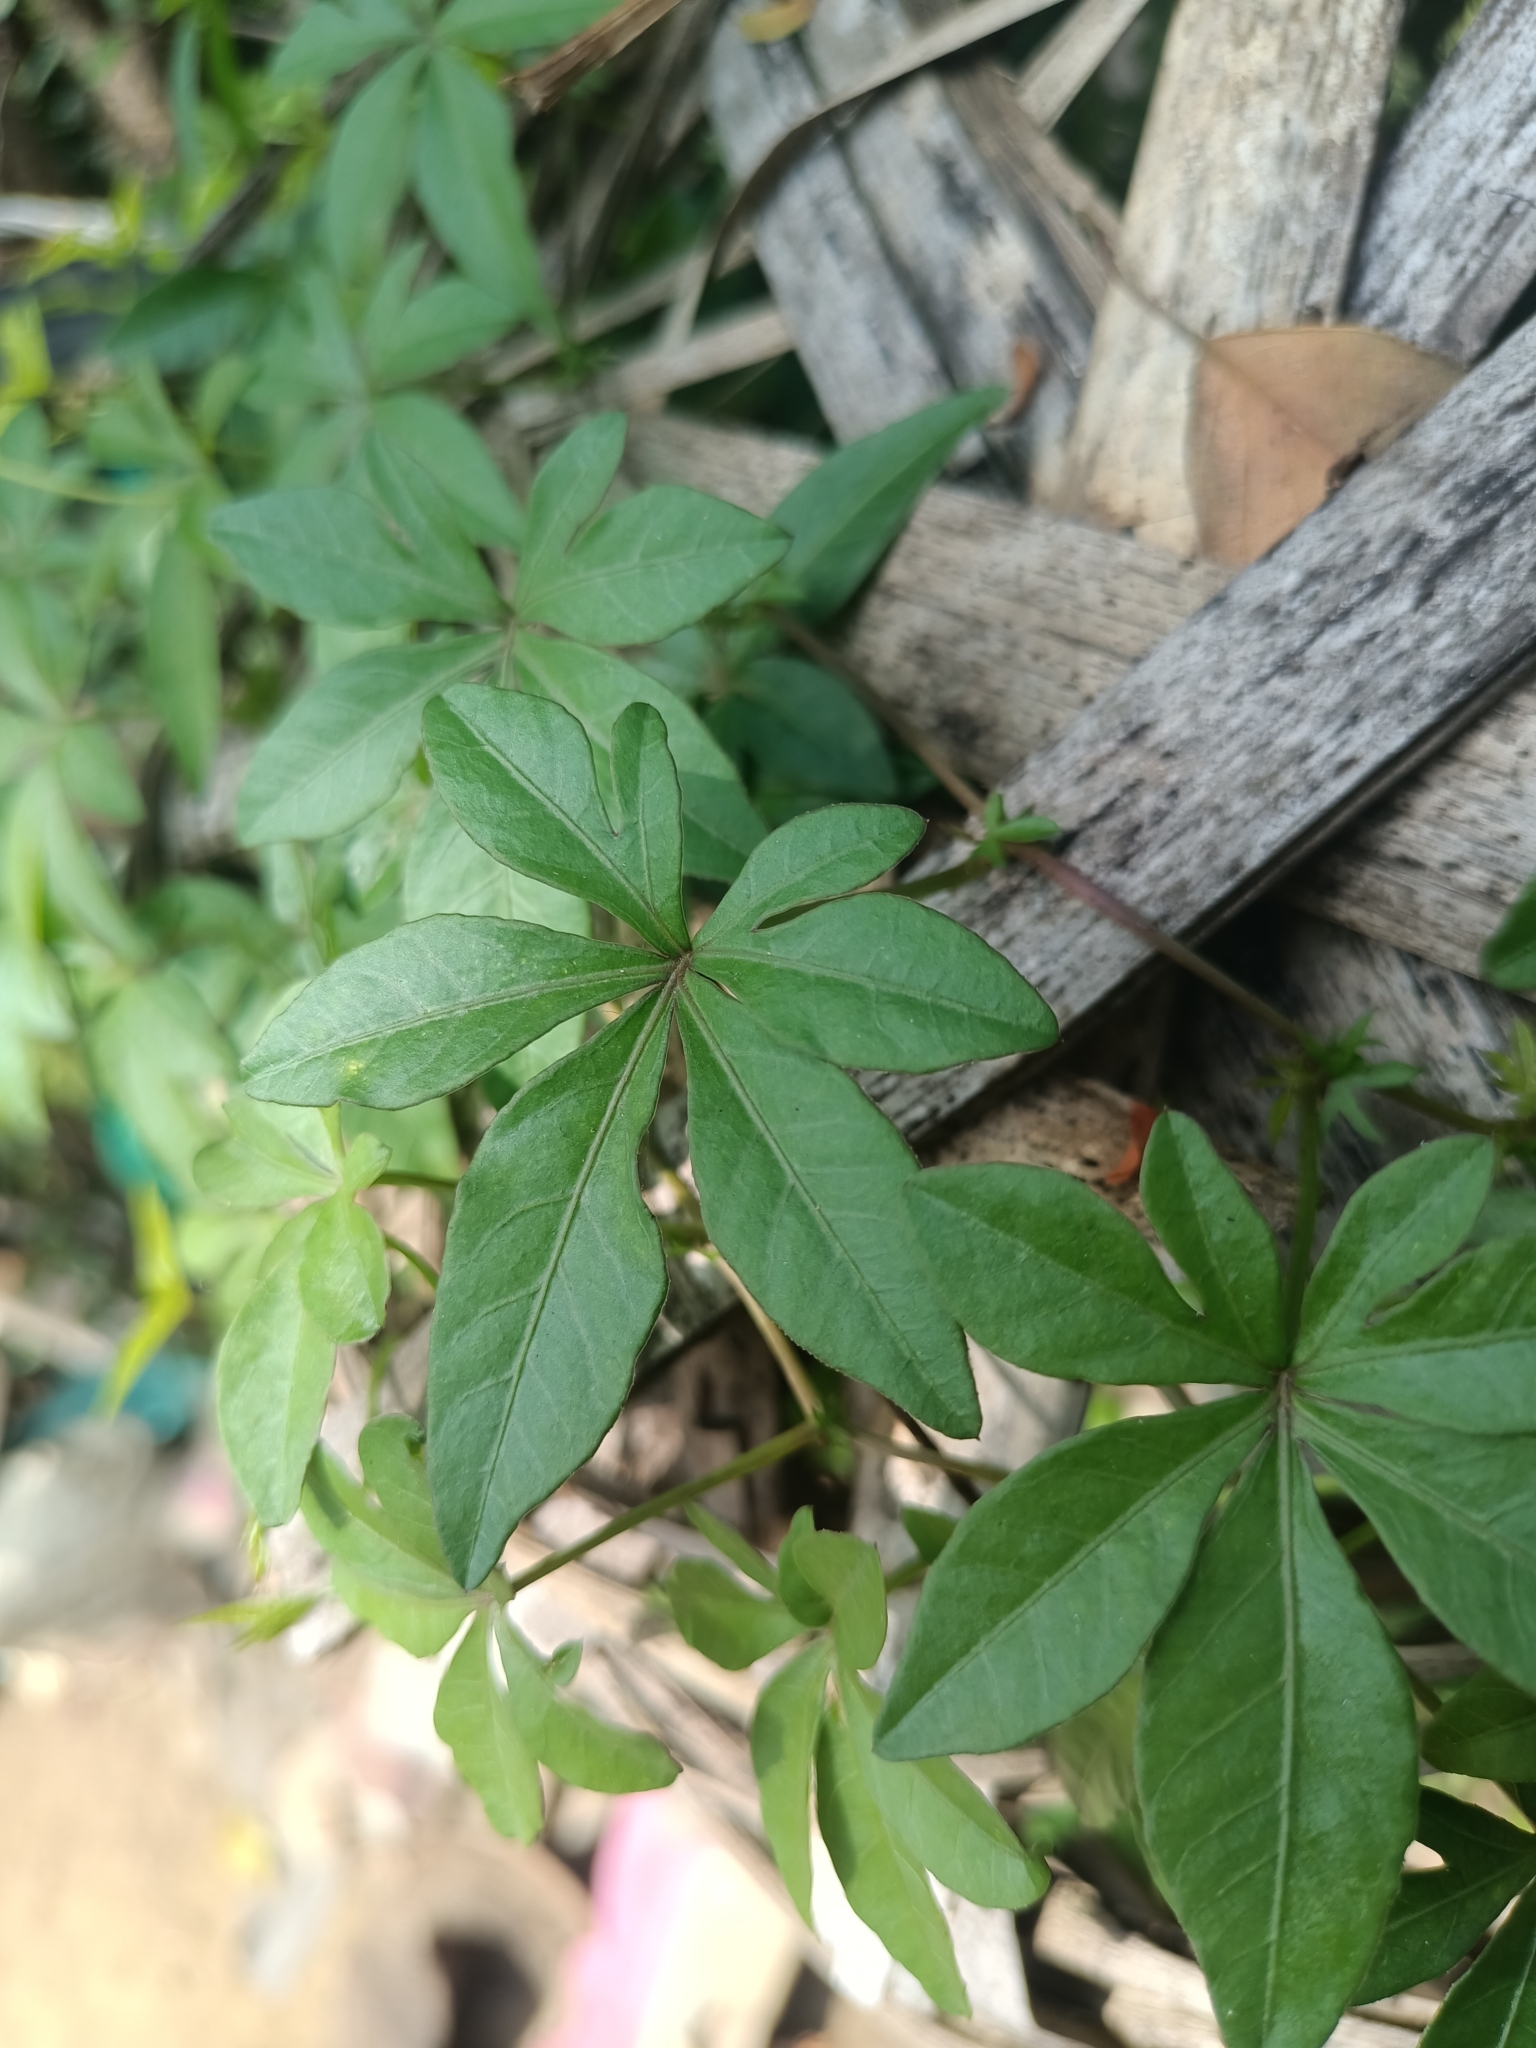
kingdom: Plantae
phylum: Tracheophyta
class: Magnoliopsida
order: Solanales
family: Convolvulaceae
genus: Ipomoea
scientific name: Ipomoea cairica
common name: Mile a minute vine
